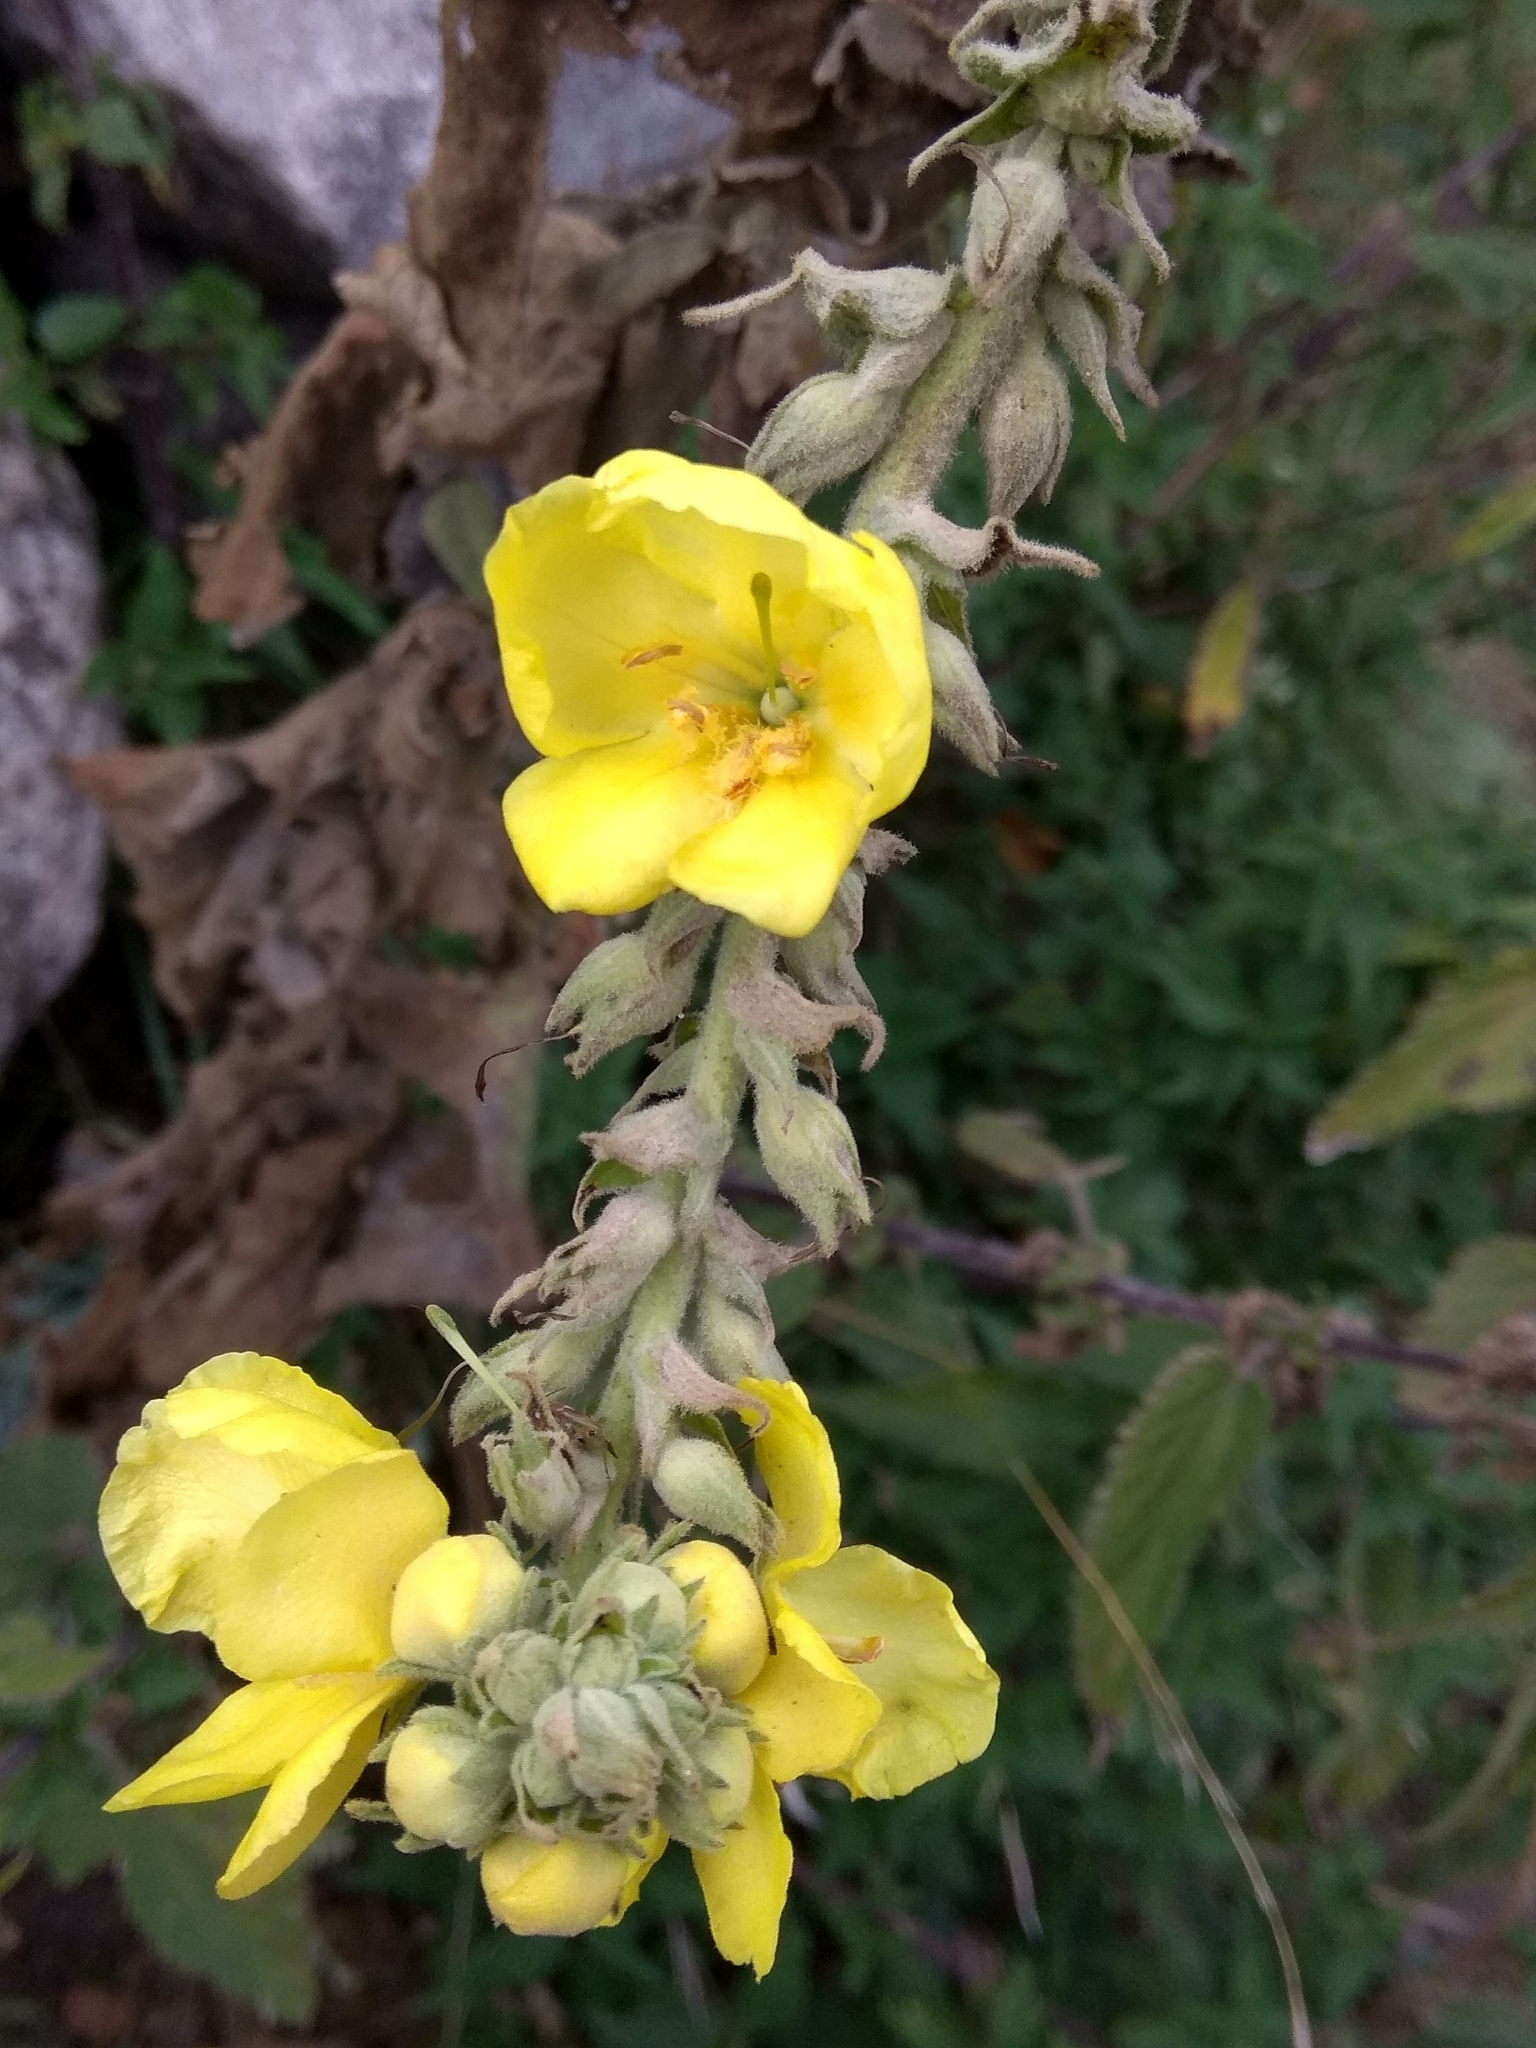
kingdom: Plantae
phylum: Tracheophyta
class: Magnoliopsida
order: Lamiales
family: Scrophulariaceae
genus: Verbascum
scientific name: Verbascum phlomoides
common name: Orange mullein
